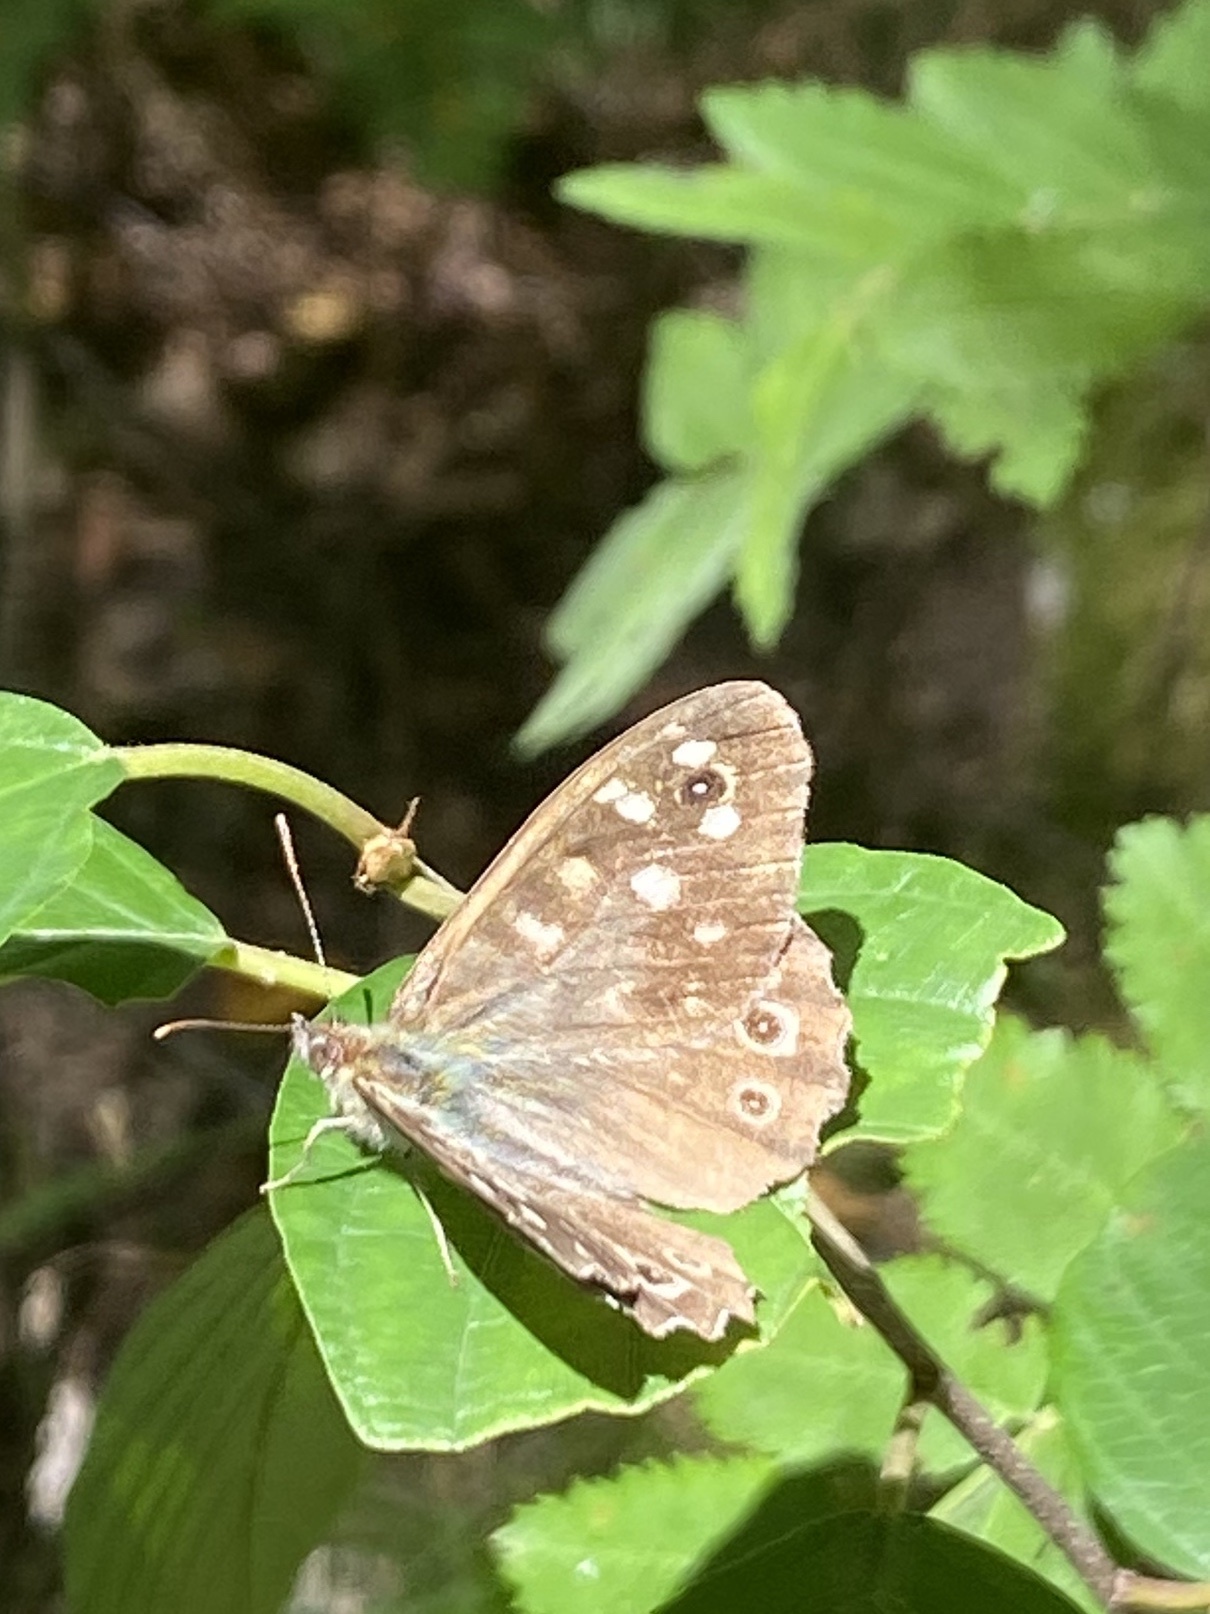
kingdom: Animalia
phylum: Arthropoda
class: Insecta
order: Lepidoptera
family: Nymphalidae
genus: Pararge
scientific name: Pararge aegeria
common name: Speckled wood
